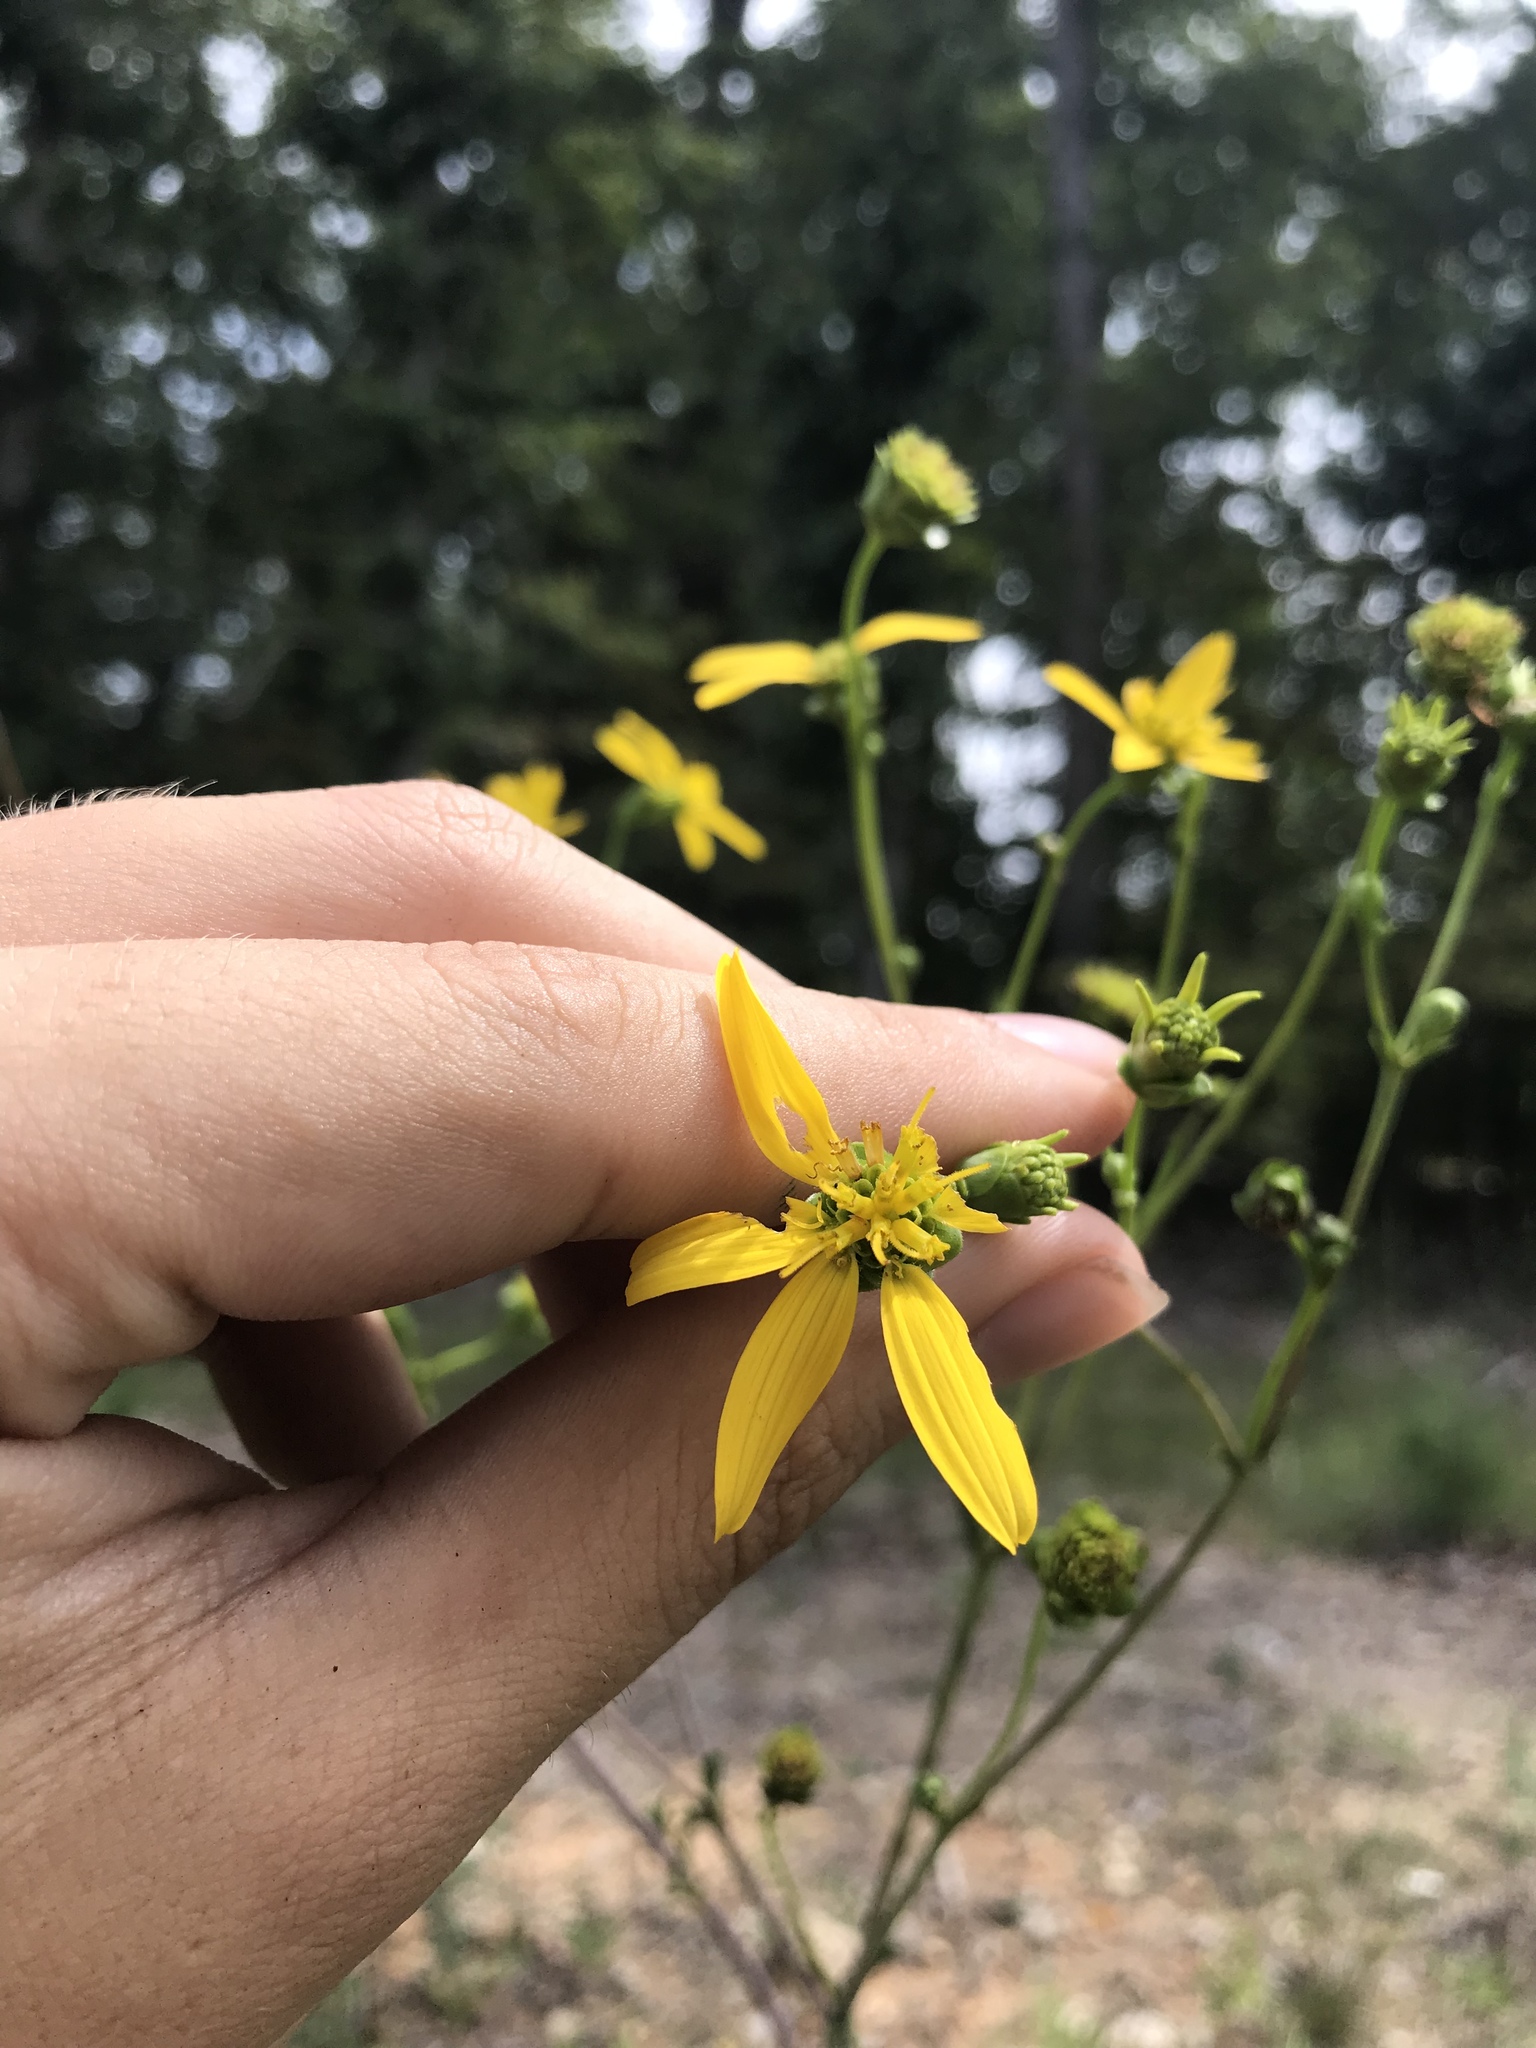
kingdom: Plantae
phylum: Tracheophyta
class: Magnoliopsida
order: Asterales
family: Asteraceae
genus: Silphium
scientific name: Silphium compositum
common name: Lesser basal-leaf rosinweed
